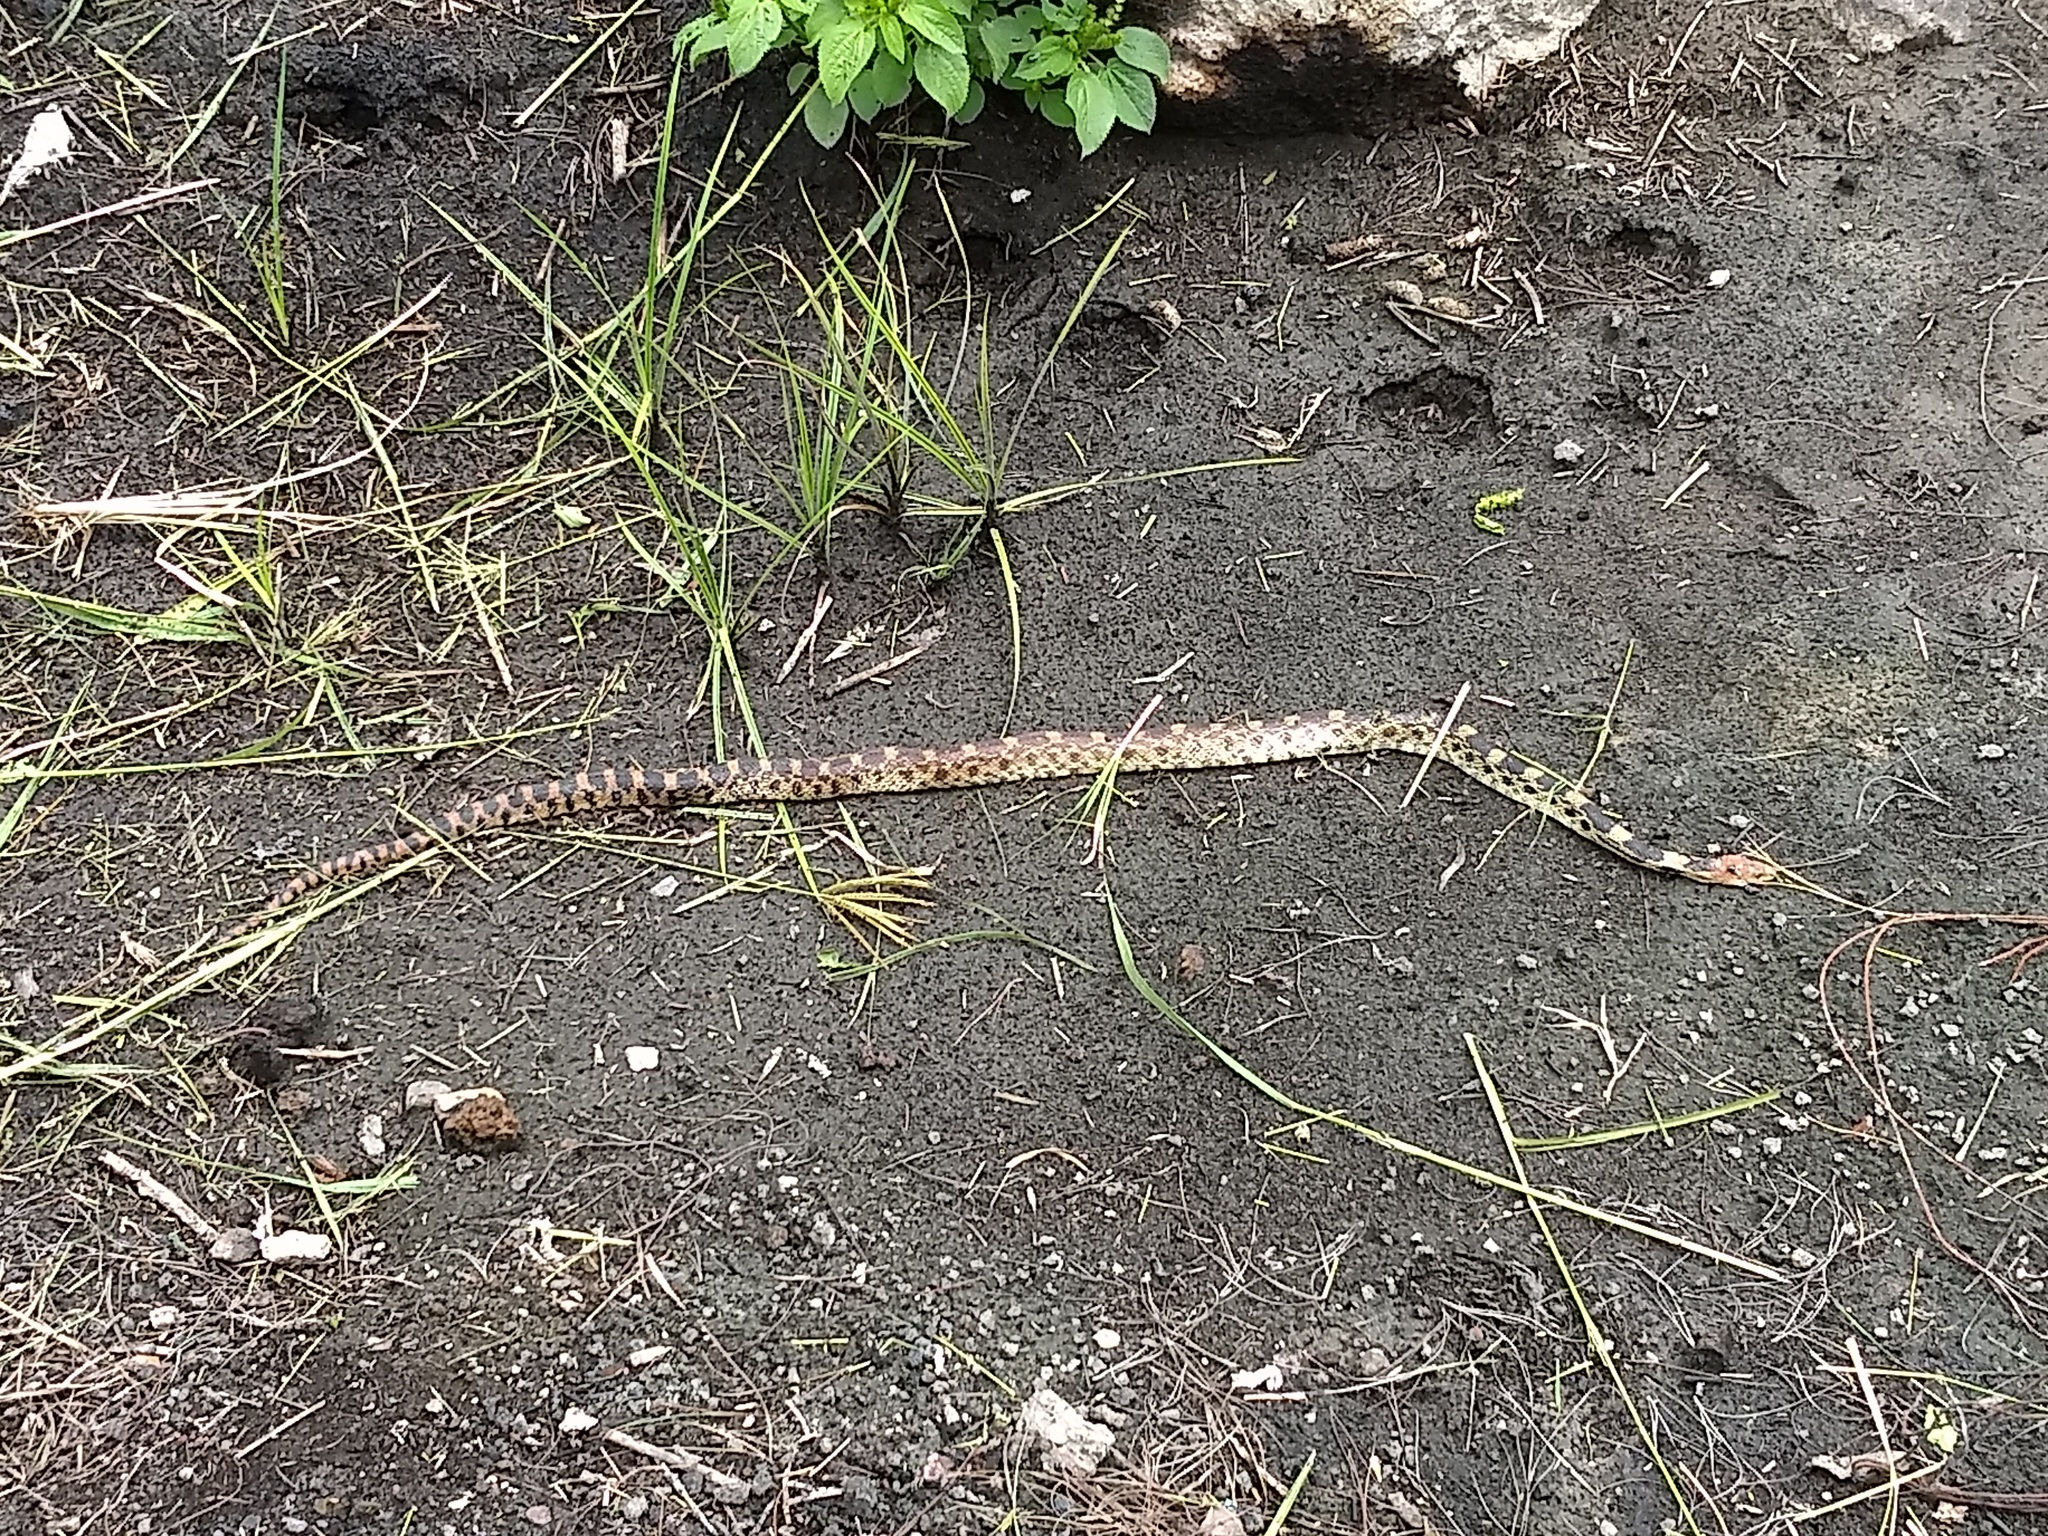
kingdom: Animalia
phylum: Chordata
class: Squamata
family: Colubridae
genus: Pituophis
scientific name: Pituophis deppei
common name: Mexican bull snake
